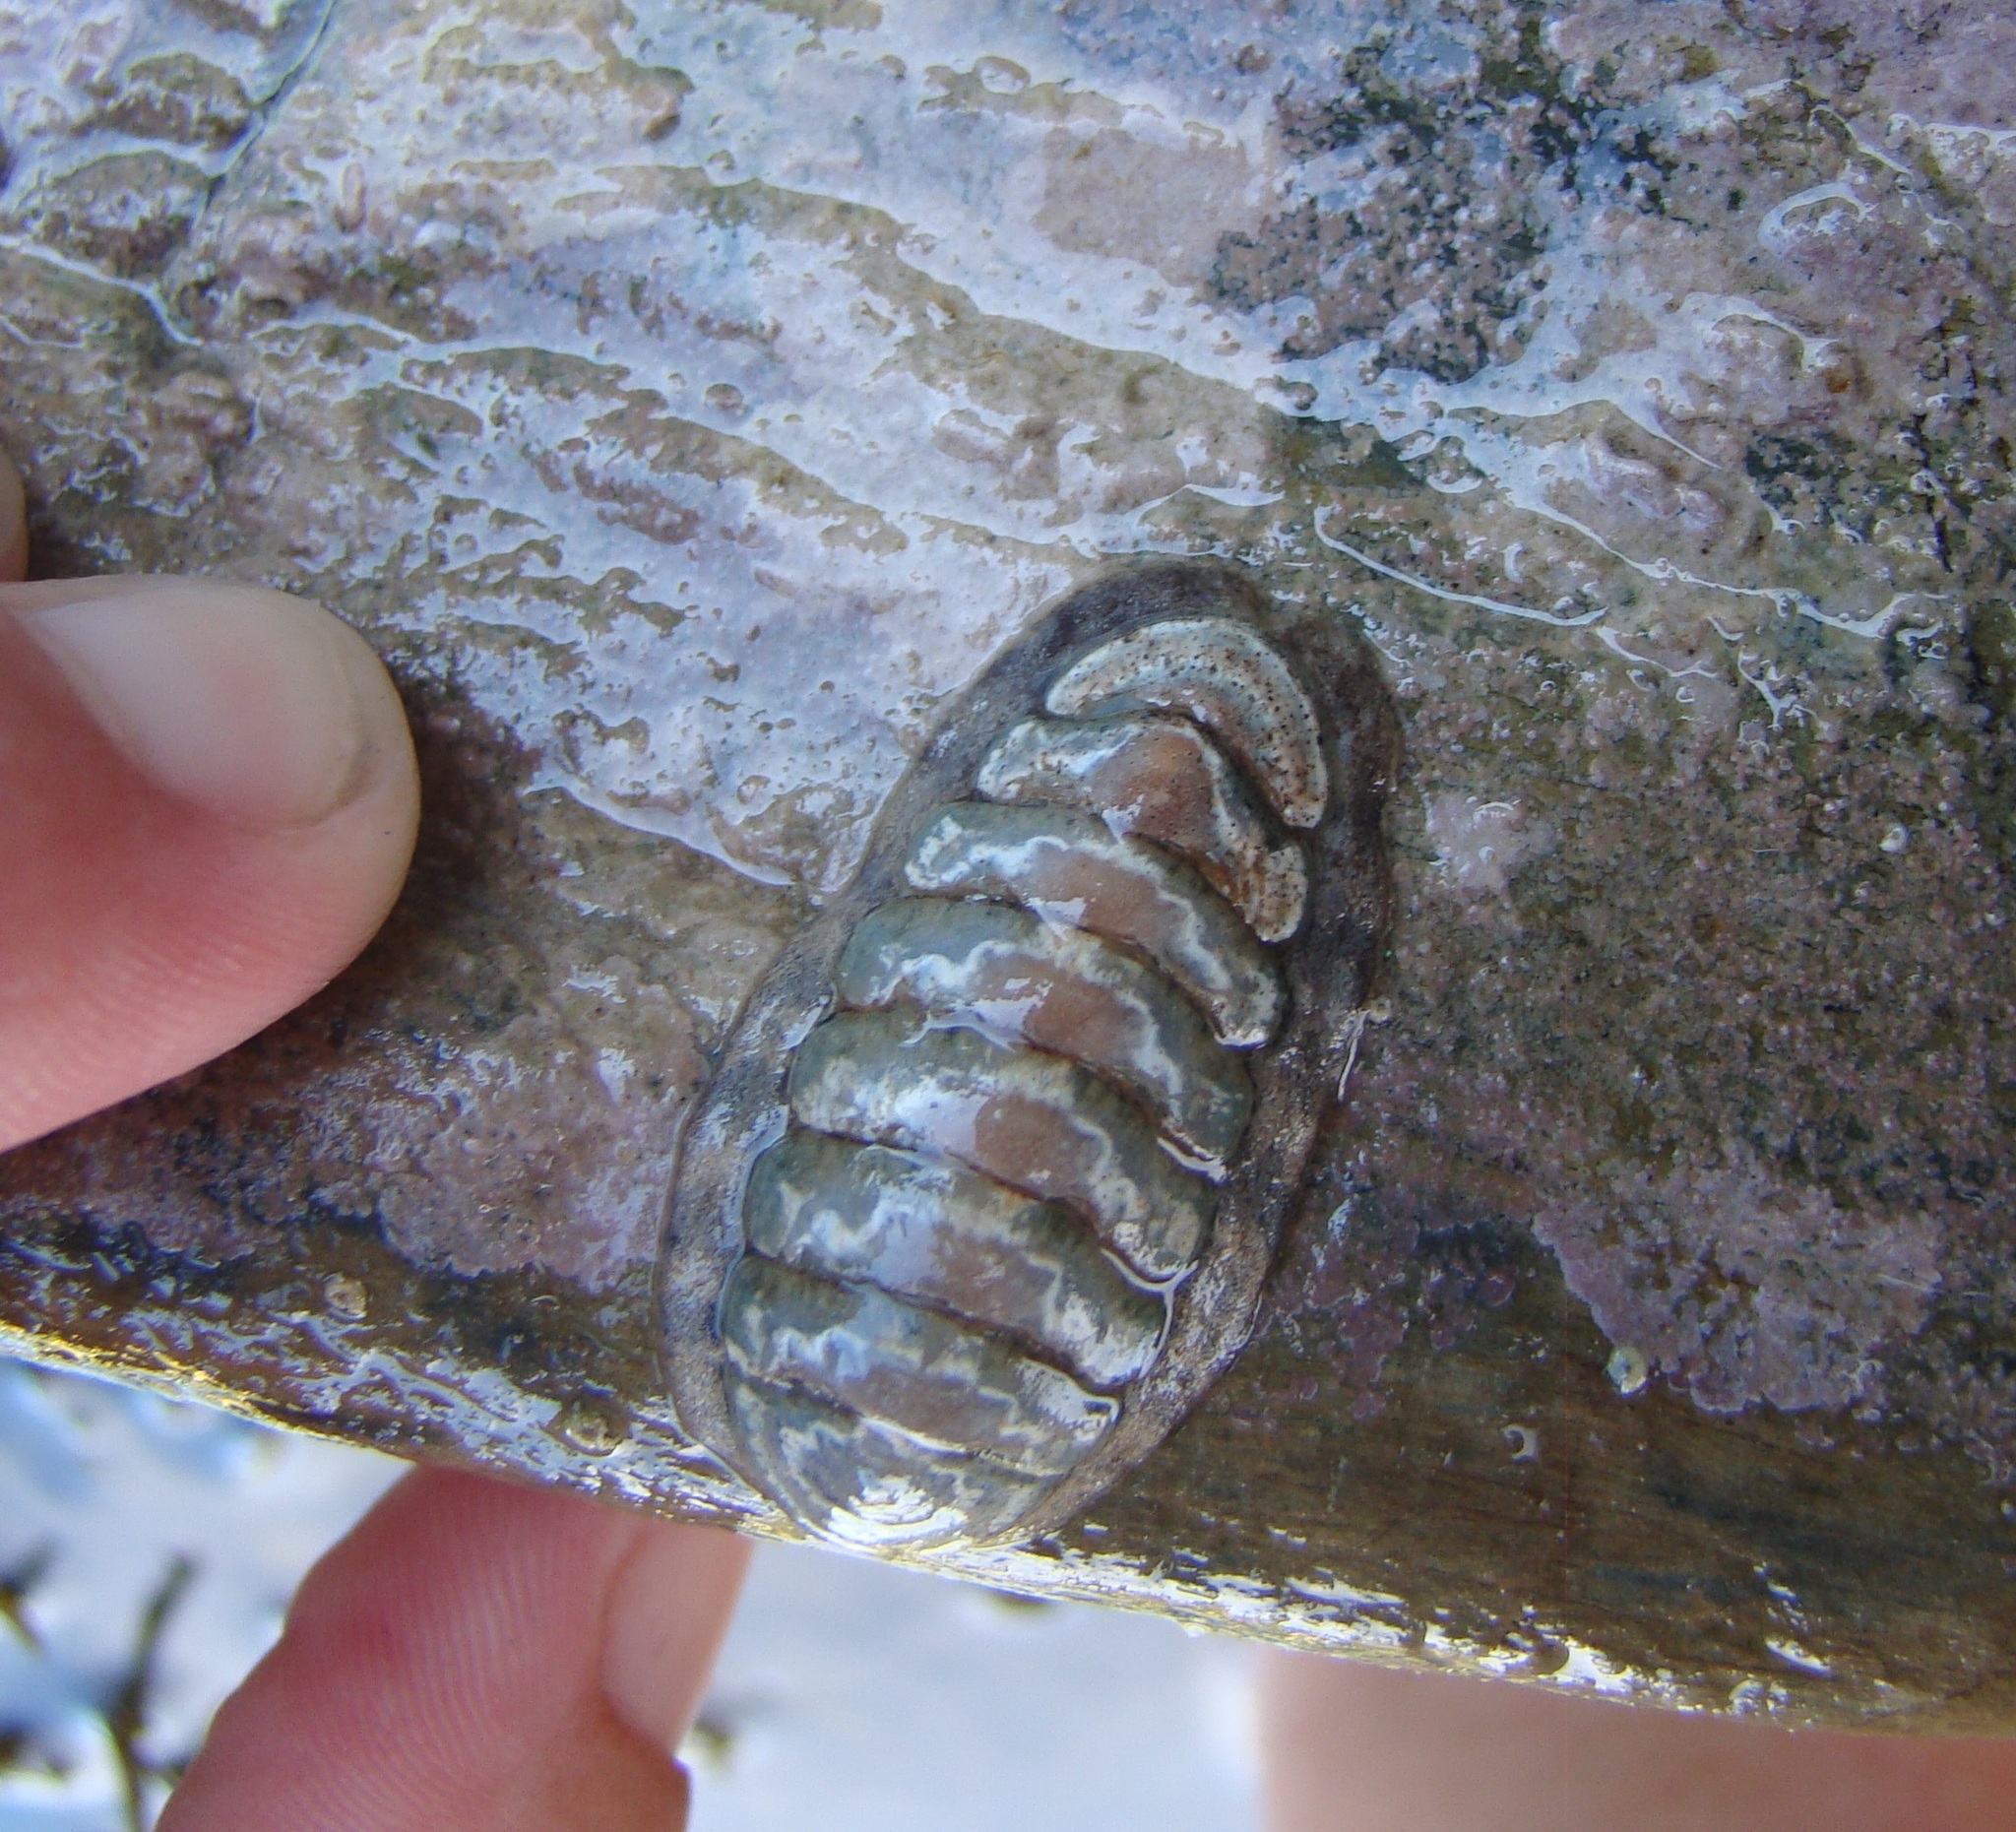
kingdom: Animalia
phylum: Mollusca
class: Polyplacophora
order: Chitonida
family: Ischnochitonidae
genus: Ischnochiton
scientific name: Ischnochiton maorianus
